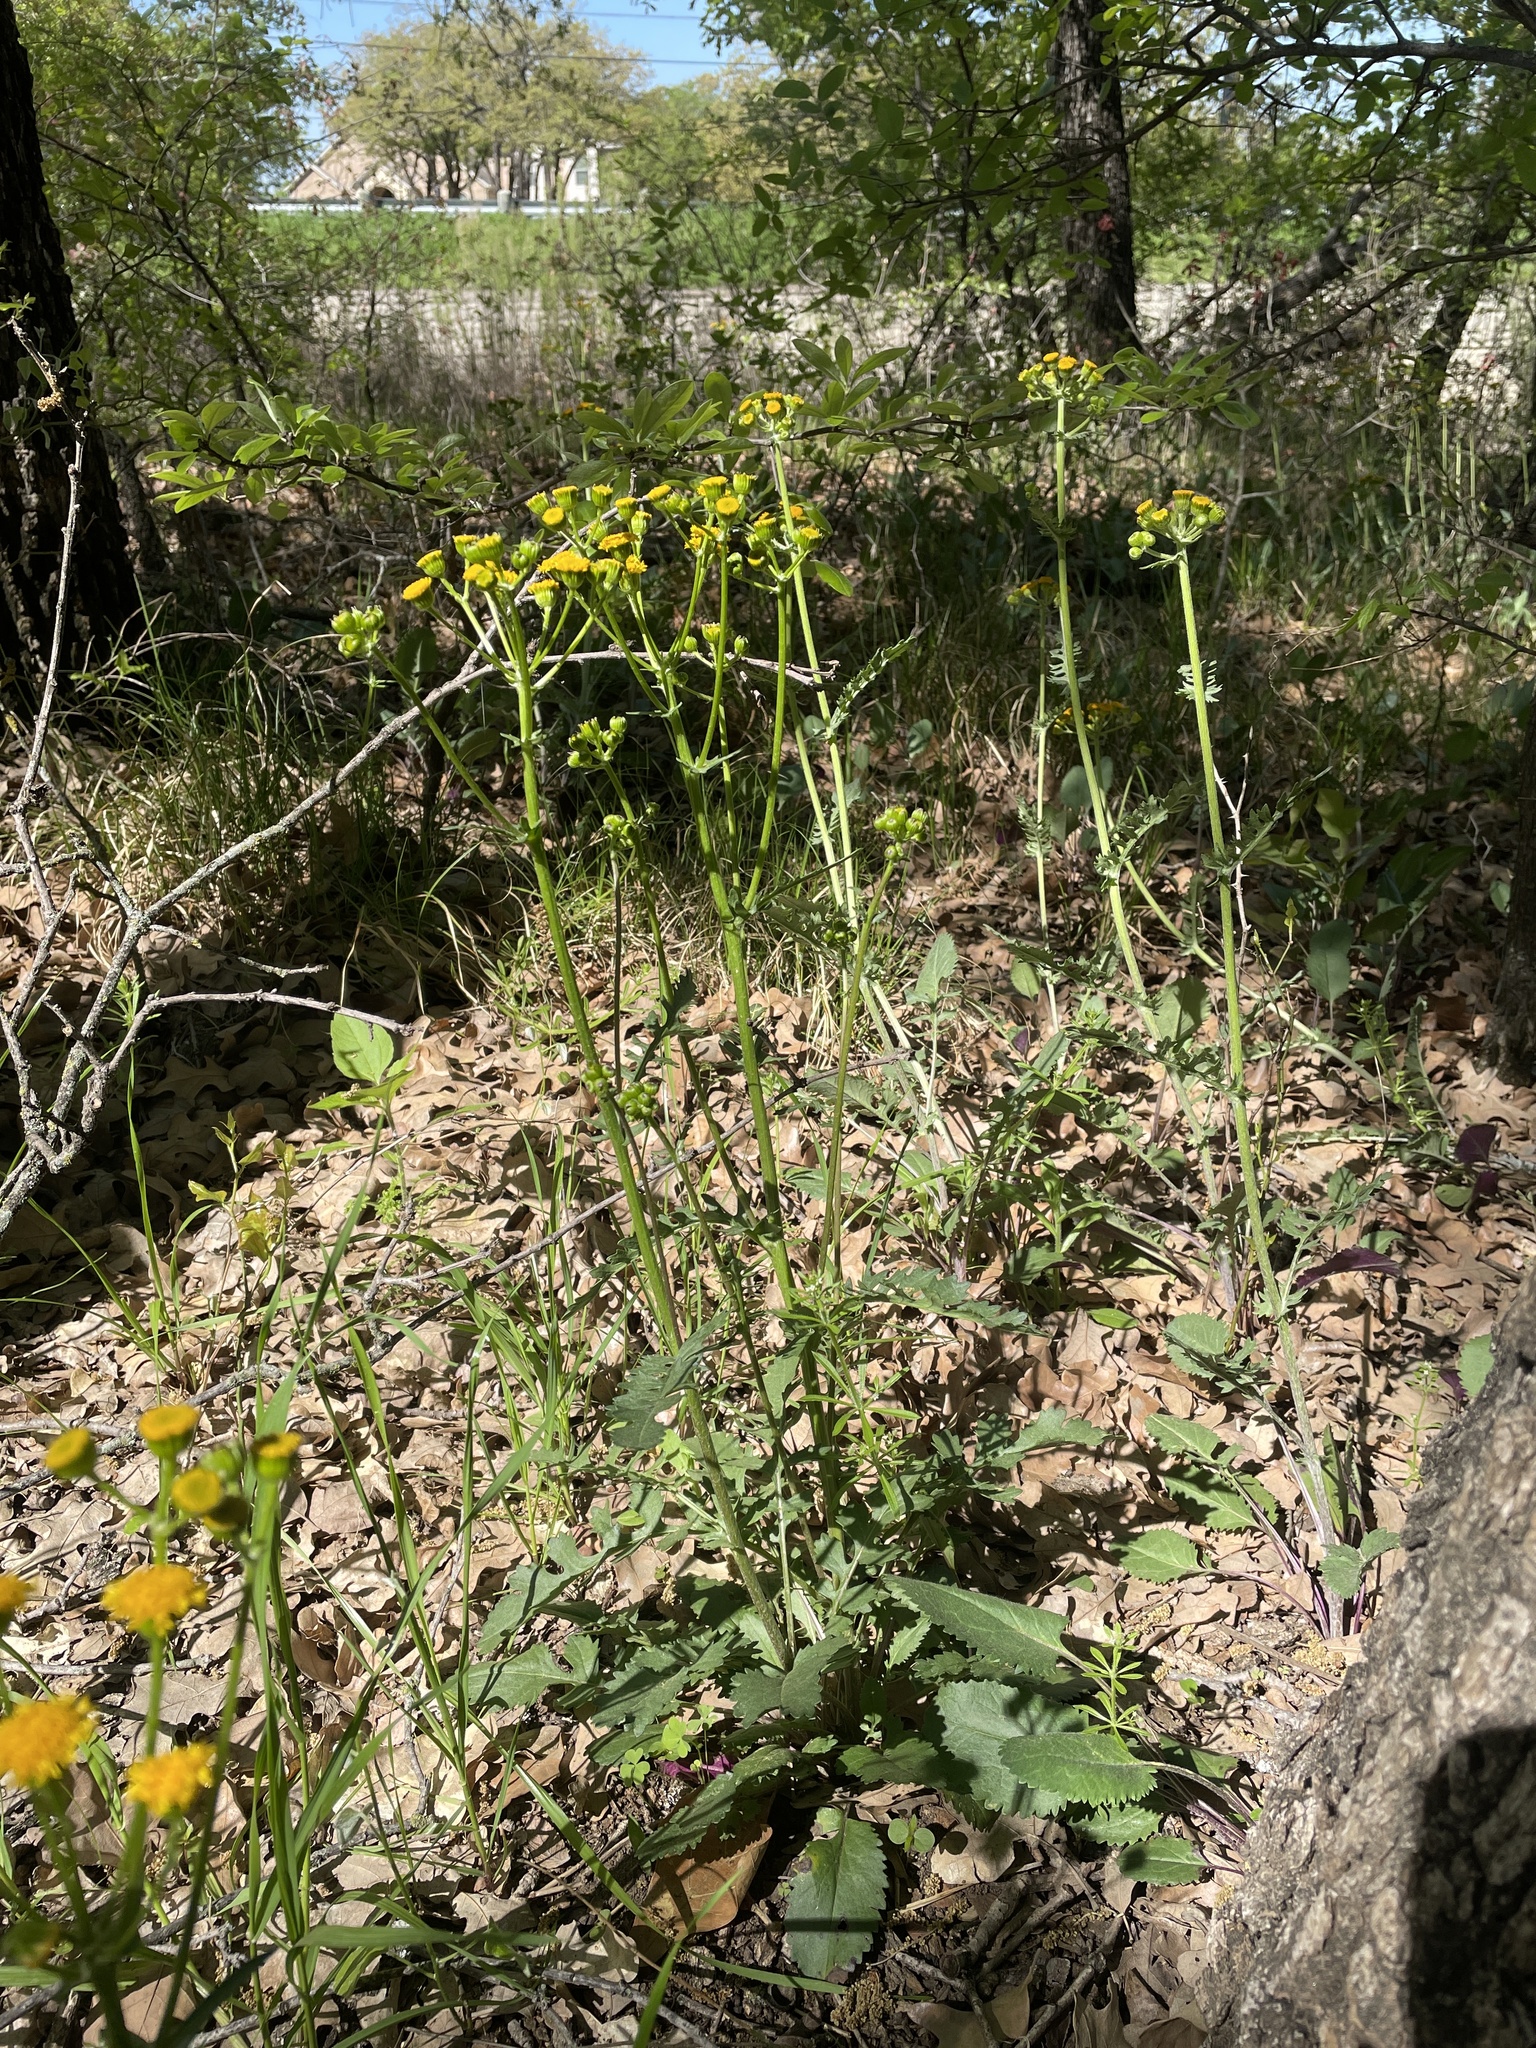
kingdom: Plantae
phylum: Tracheophyta
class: Magnoliopsida
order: Asterales
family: Asteraceae
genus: Packera
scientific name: Packera plattensis
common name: Prairie groundsel
